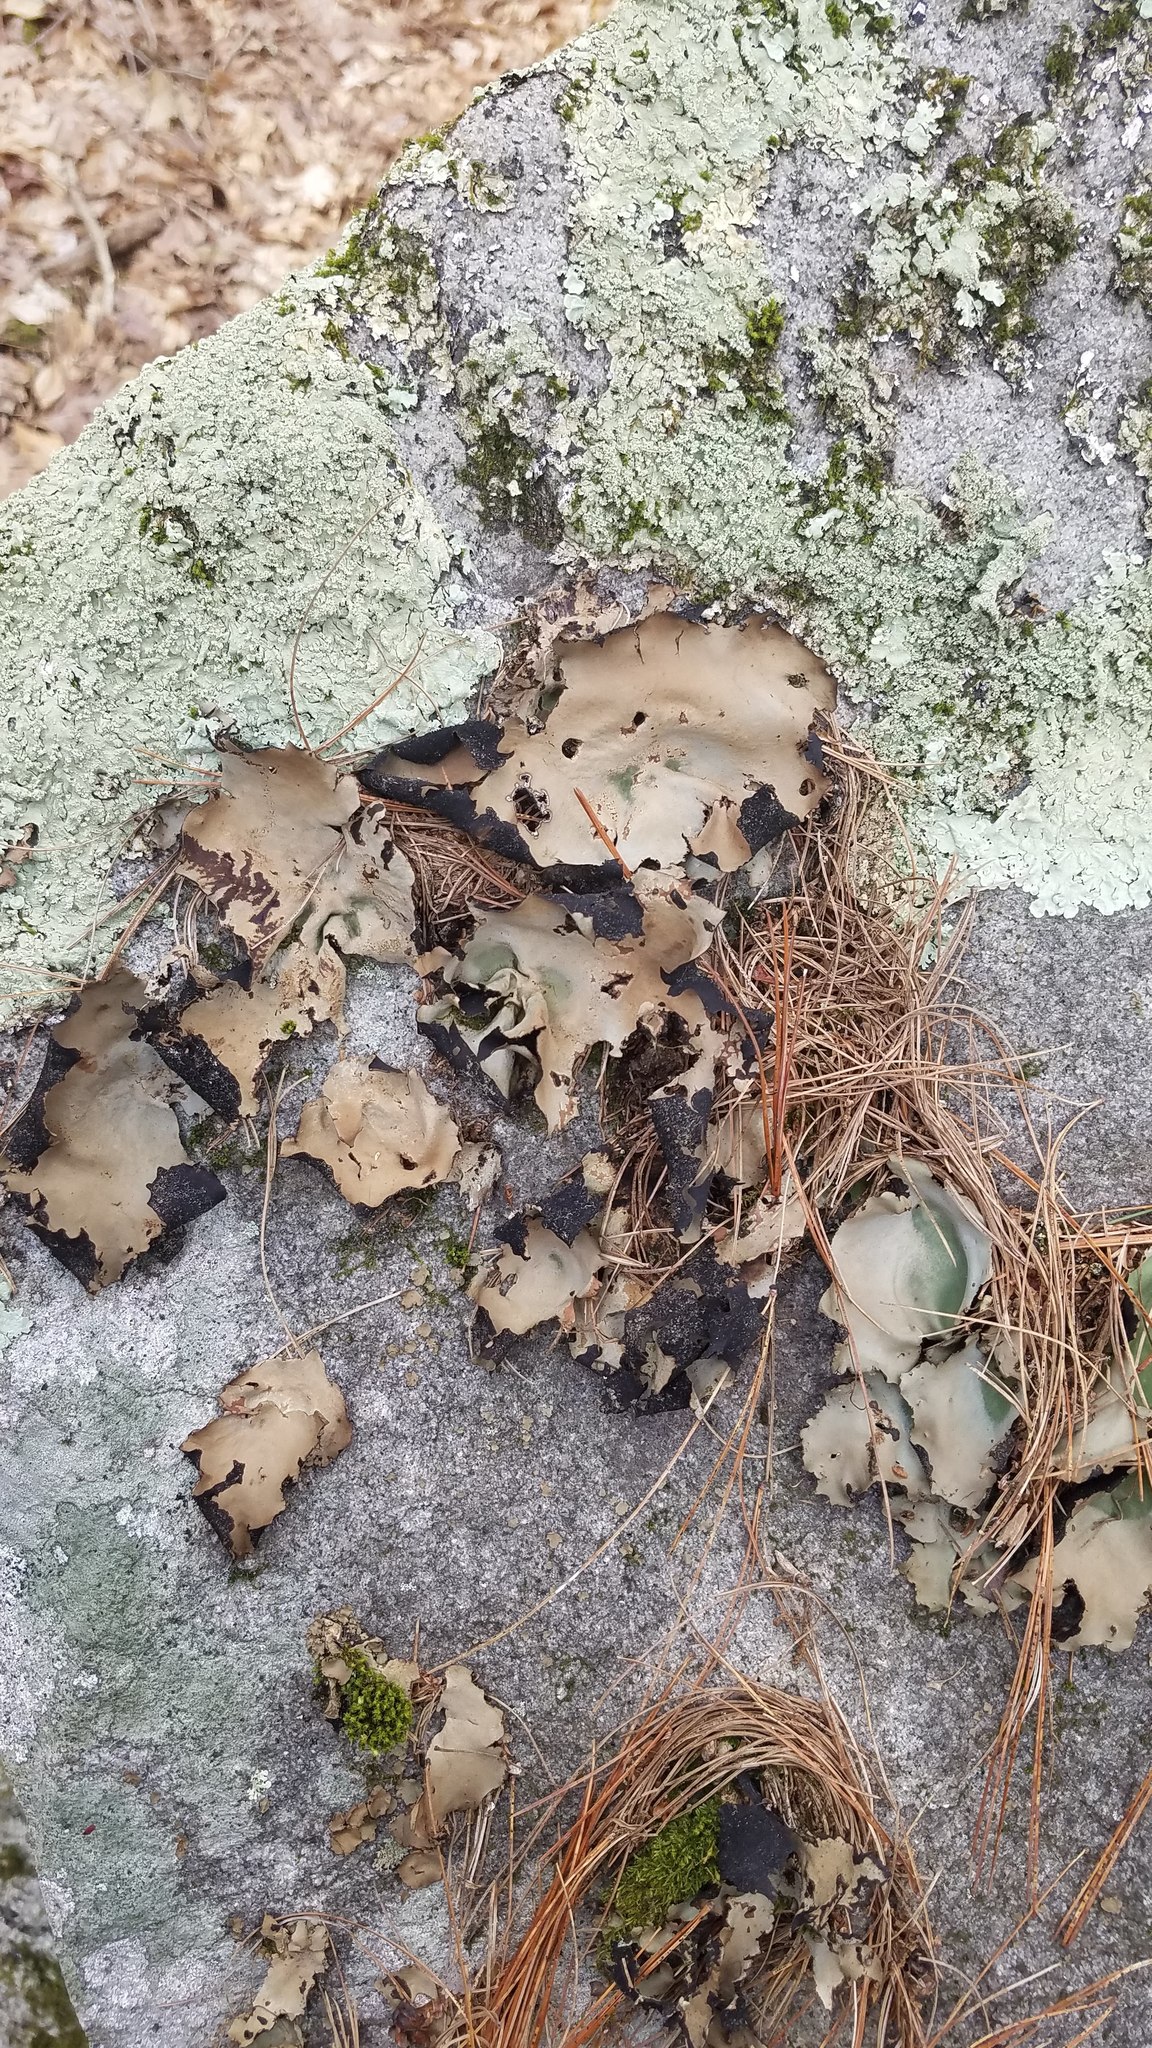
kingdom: Fungi
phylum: Ascomycota
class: Lecanoromycetes
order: Umbilicariales
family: Umbilicariaceae
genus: Umbilicaria
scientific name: Umbilicaria mammulata
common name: Smooth rock tripe
